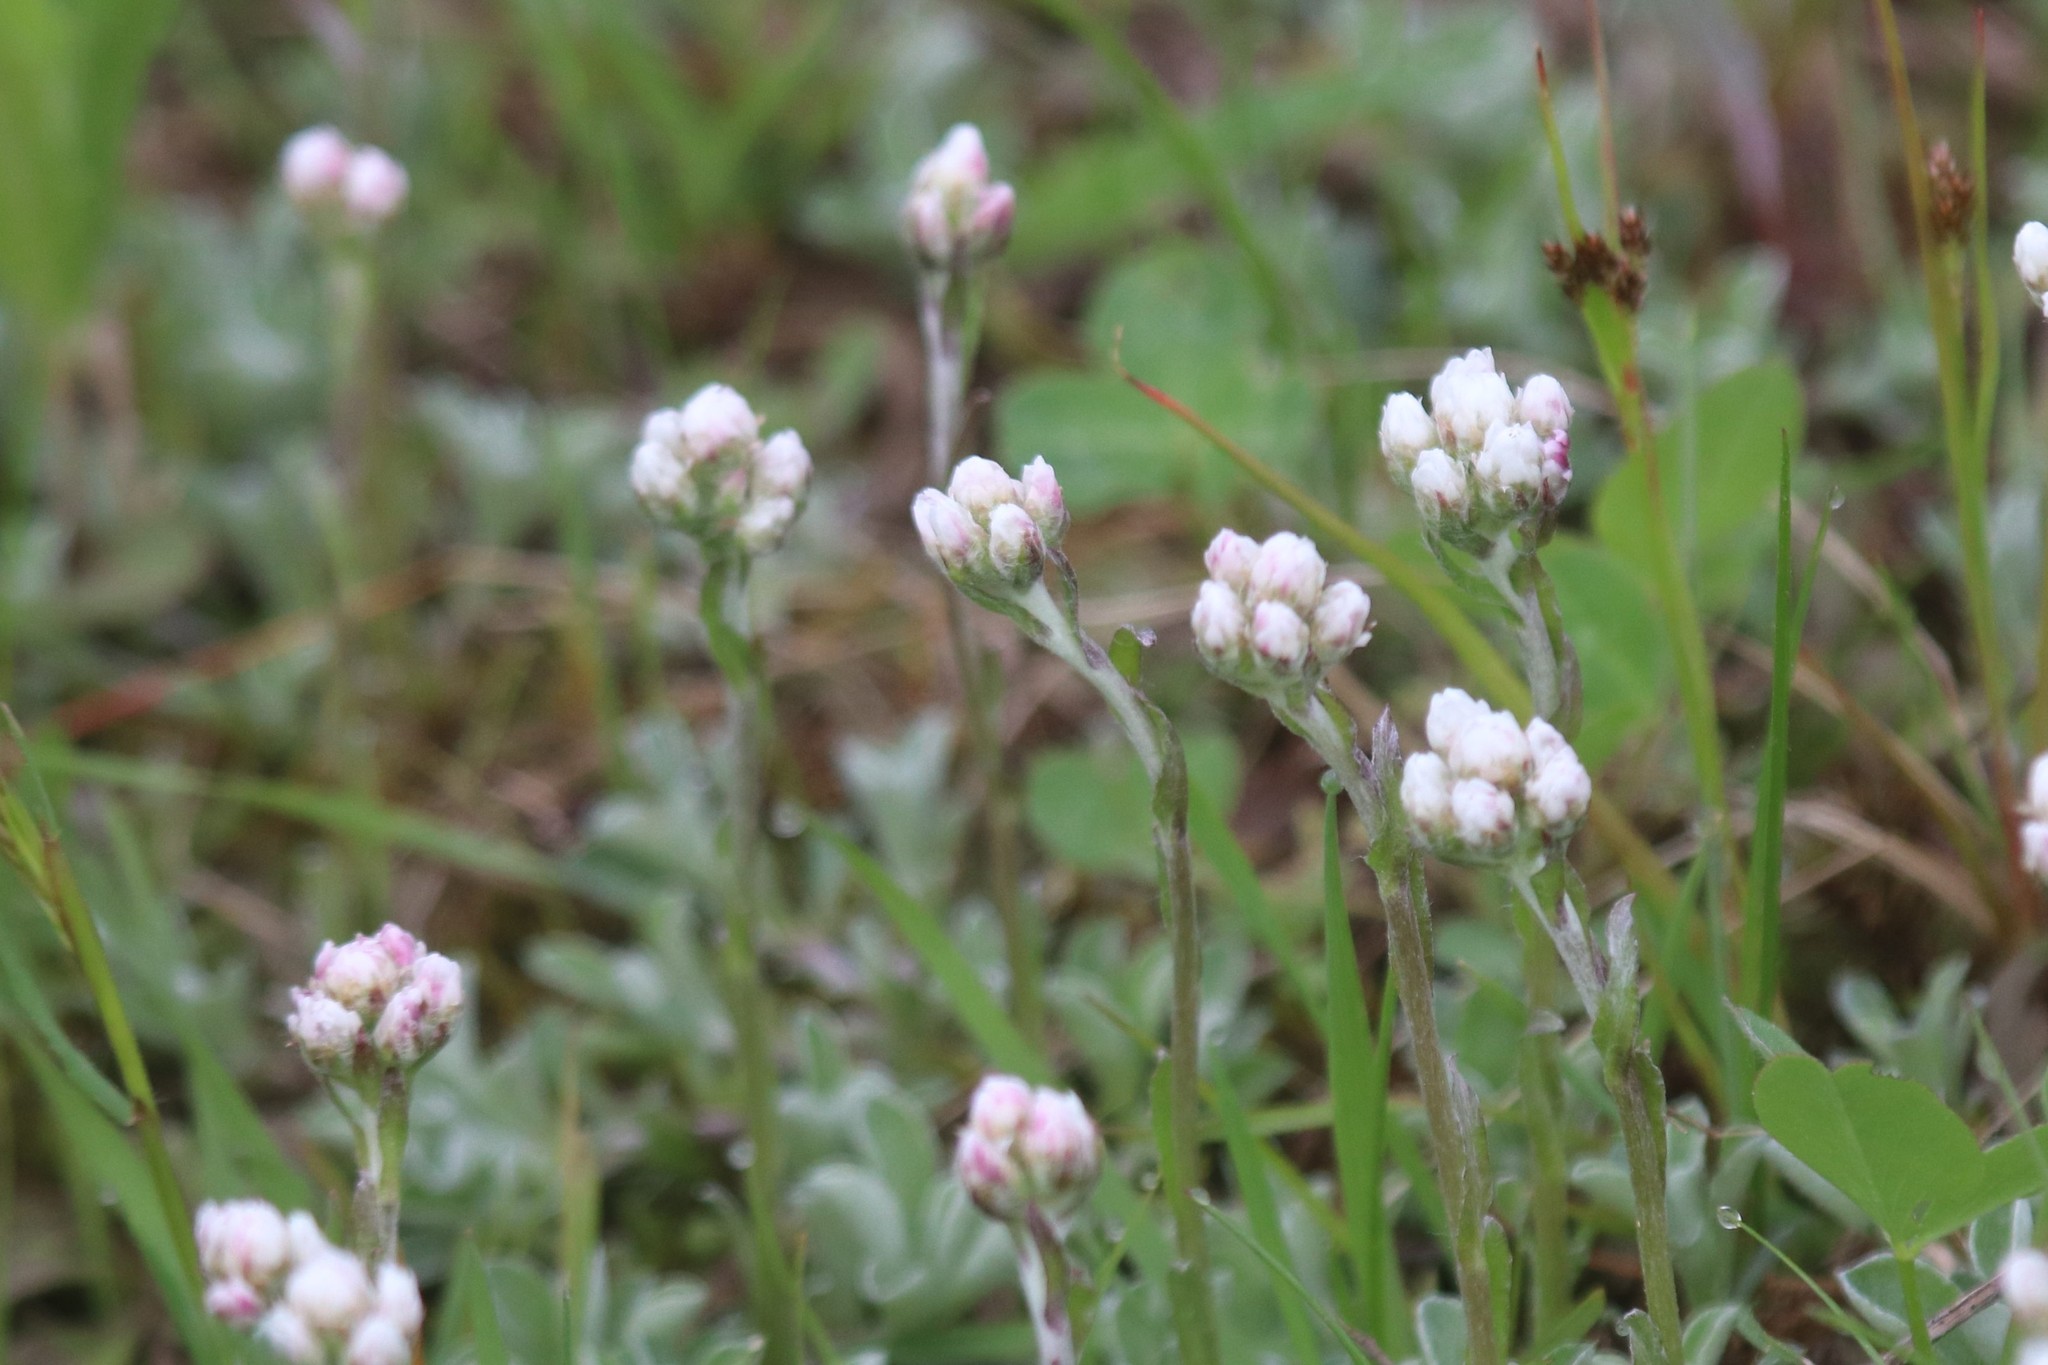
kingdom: Plantae
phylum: Tracheophyta
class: Magnoliopsida
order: Asterales
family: Asteraceae
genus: Antennaria
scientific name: Antennaria dioica
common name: Mountain everlasting
